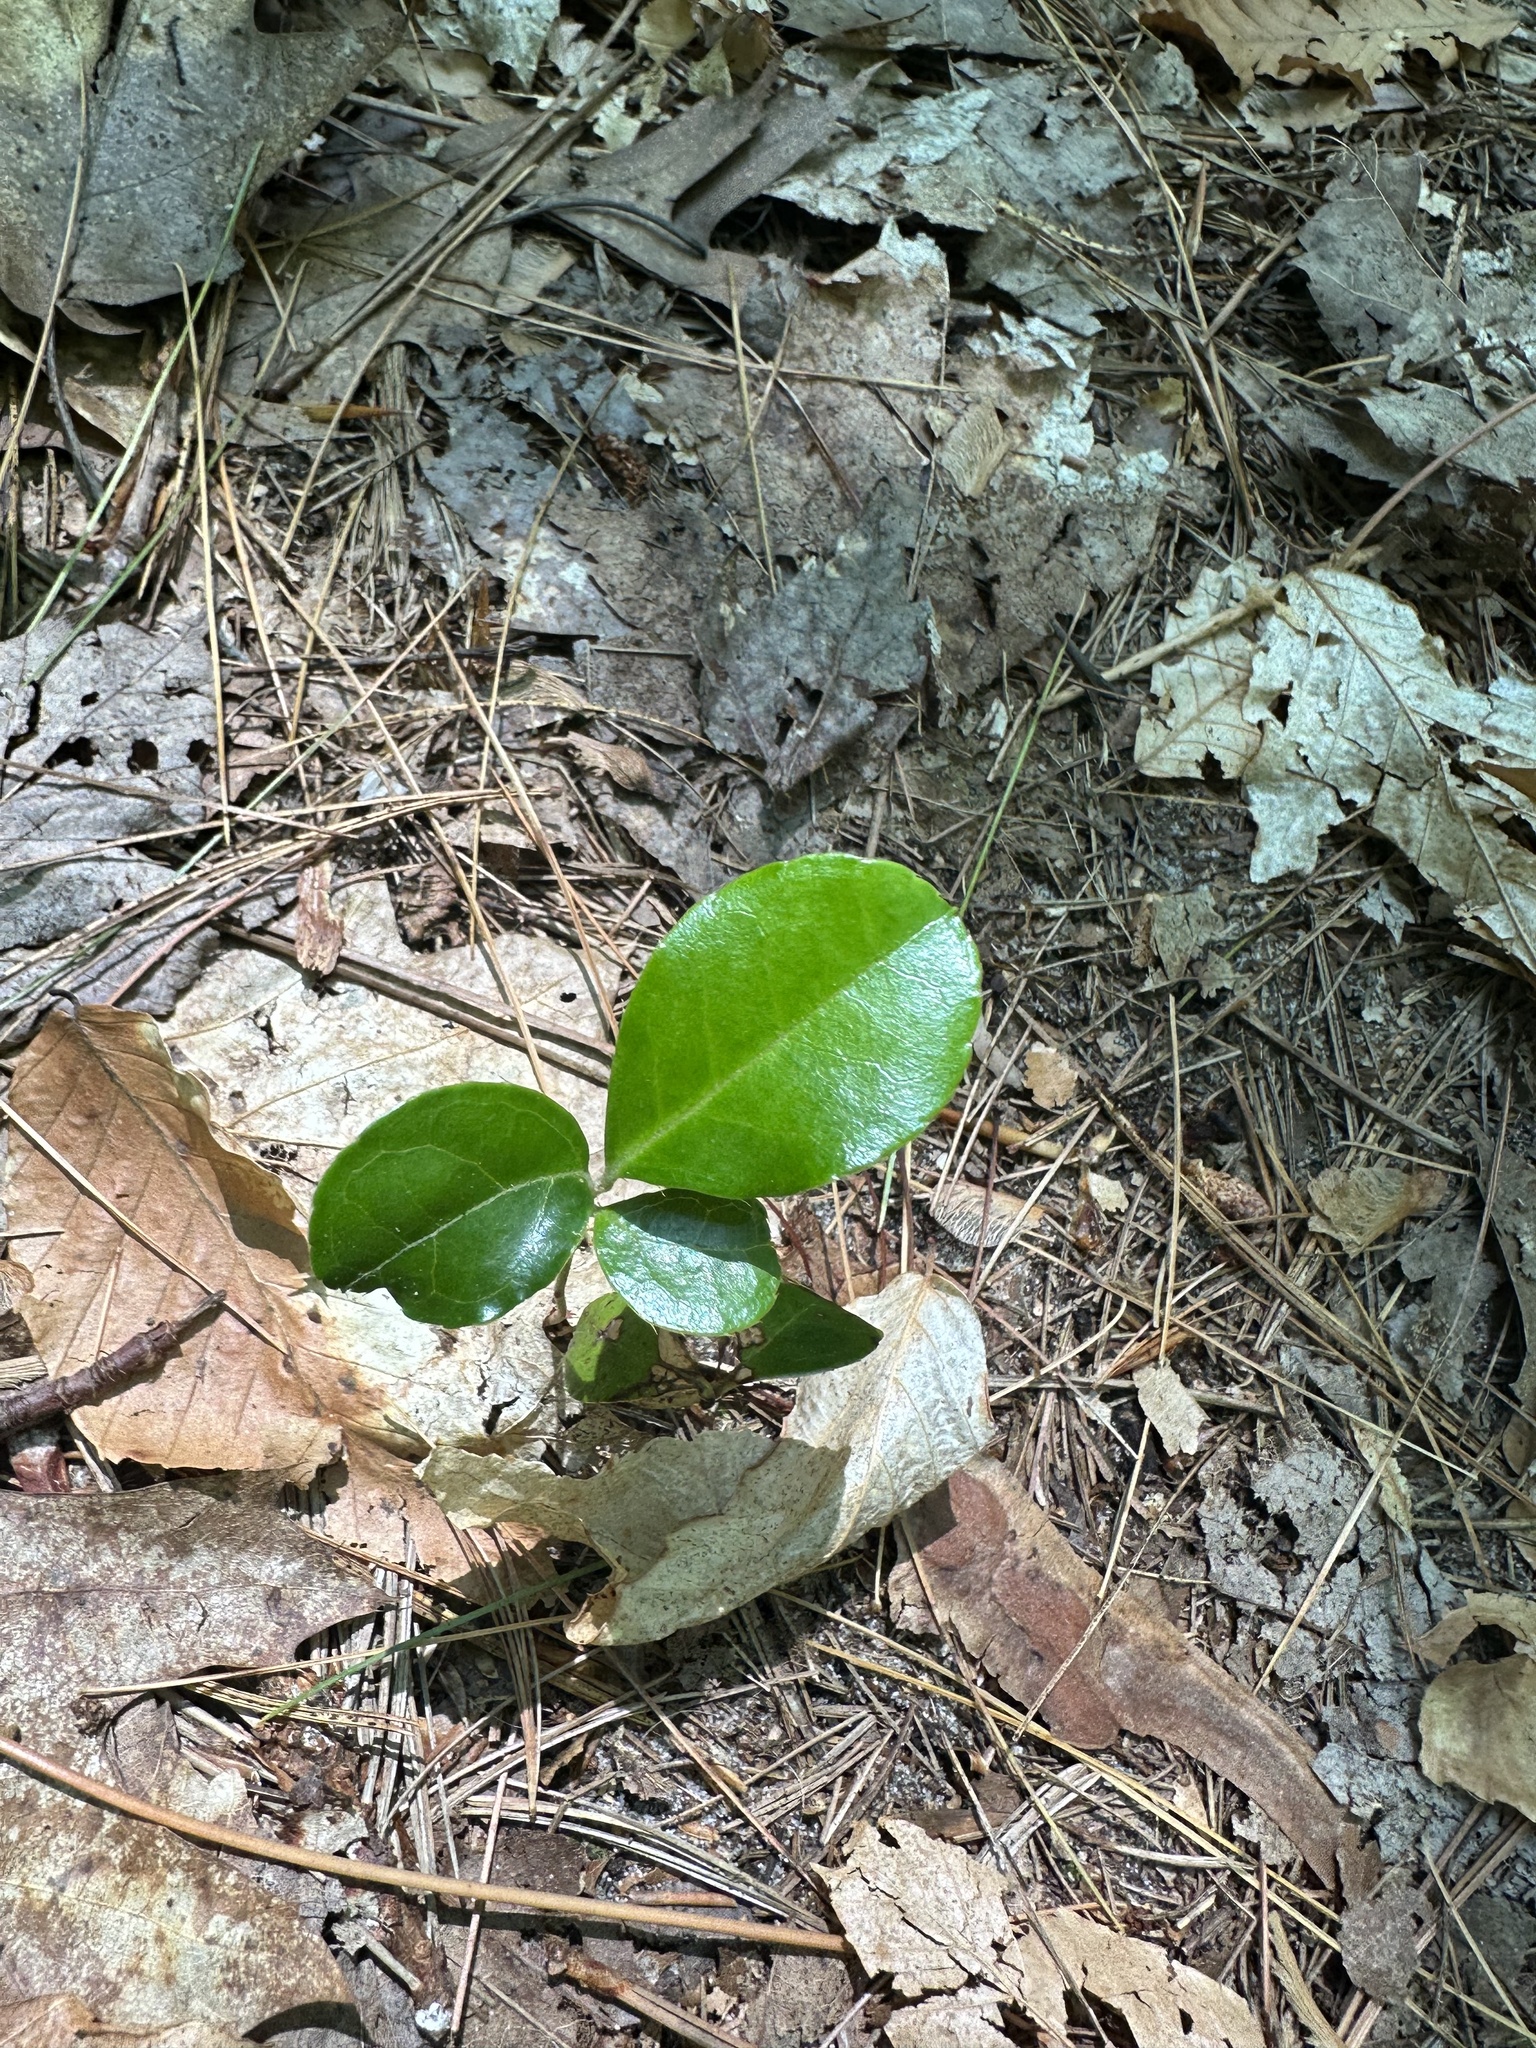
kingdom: Plantae
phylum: Tracheophyta
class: Magnoliopsida
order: Ericales
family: Ericaceae
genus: Gaultheria
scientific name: Gaultheria procumbens
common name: Checkerberry
